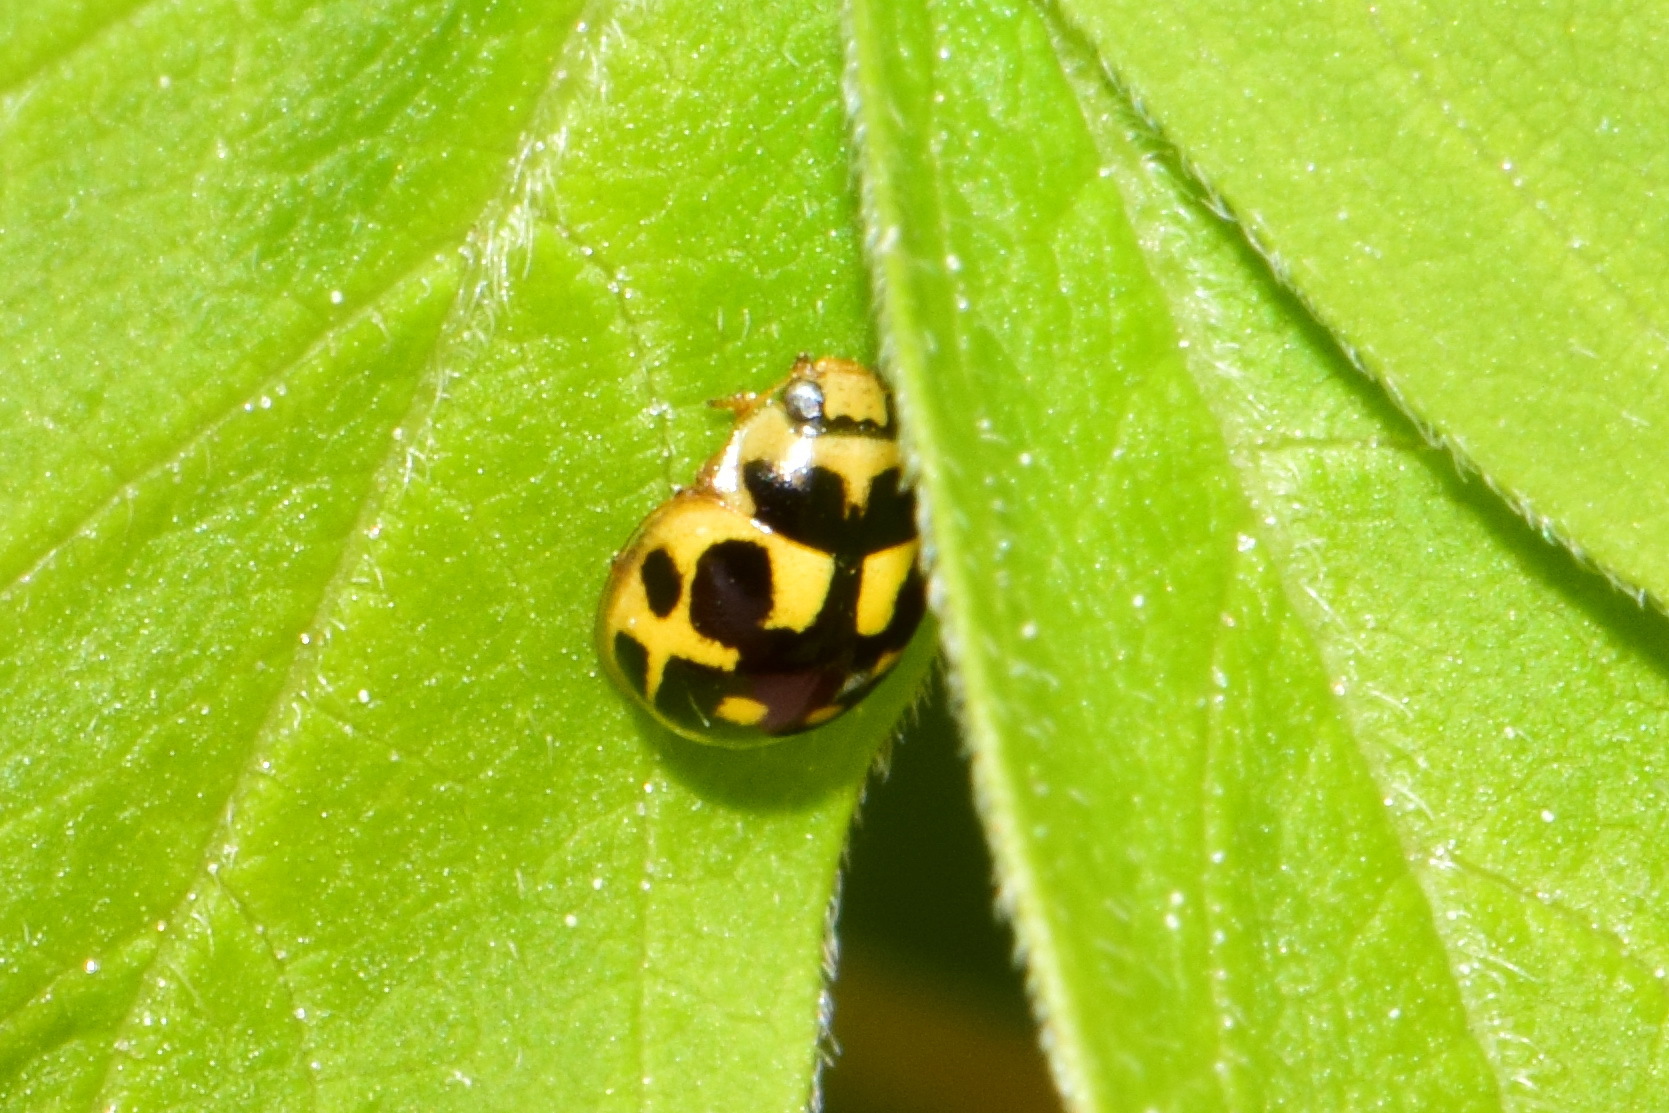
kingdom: Animalia
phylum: Arthropoda
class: Insecta
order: Coleoptera
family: Coccinellidae
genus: Propylaea
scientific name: Propylaea quatuordecimpunctata
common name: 14-spotted ladybird beetle
